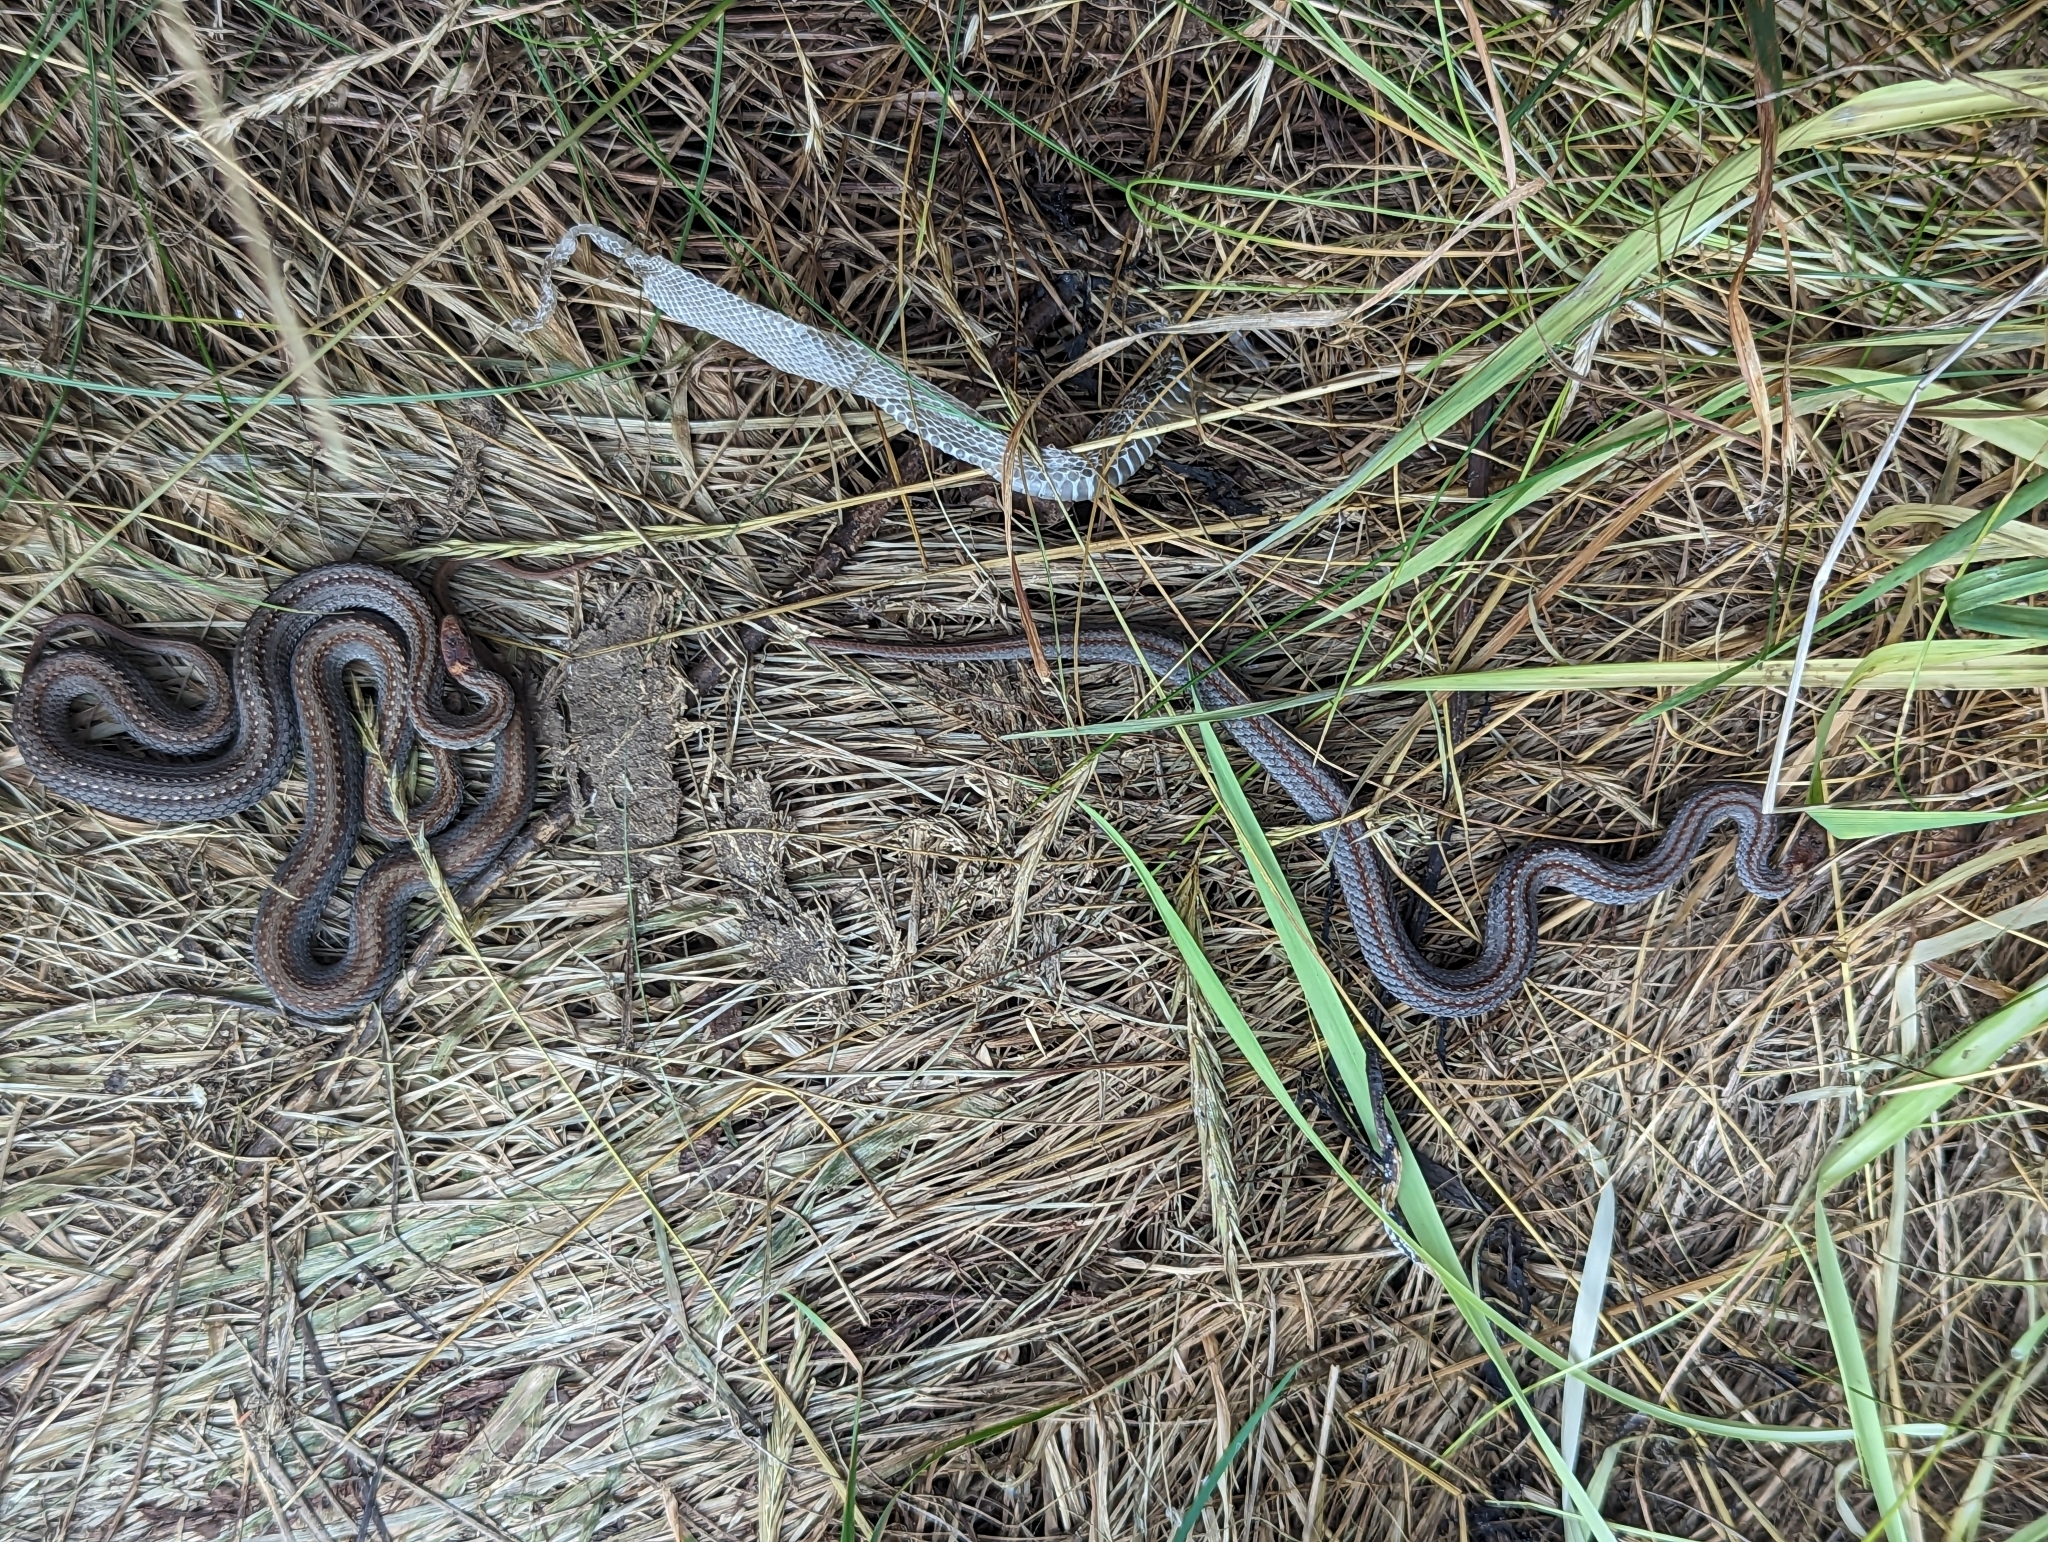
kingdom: Animalia
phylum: Chordata
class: Squamata
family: Colubridae
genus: Storeria
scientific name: Storeria occipitomaculata
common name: Redbelly snake
